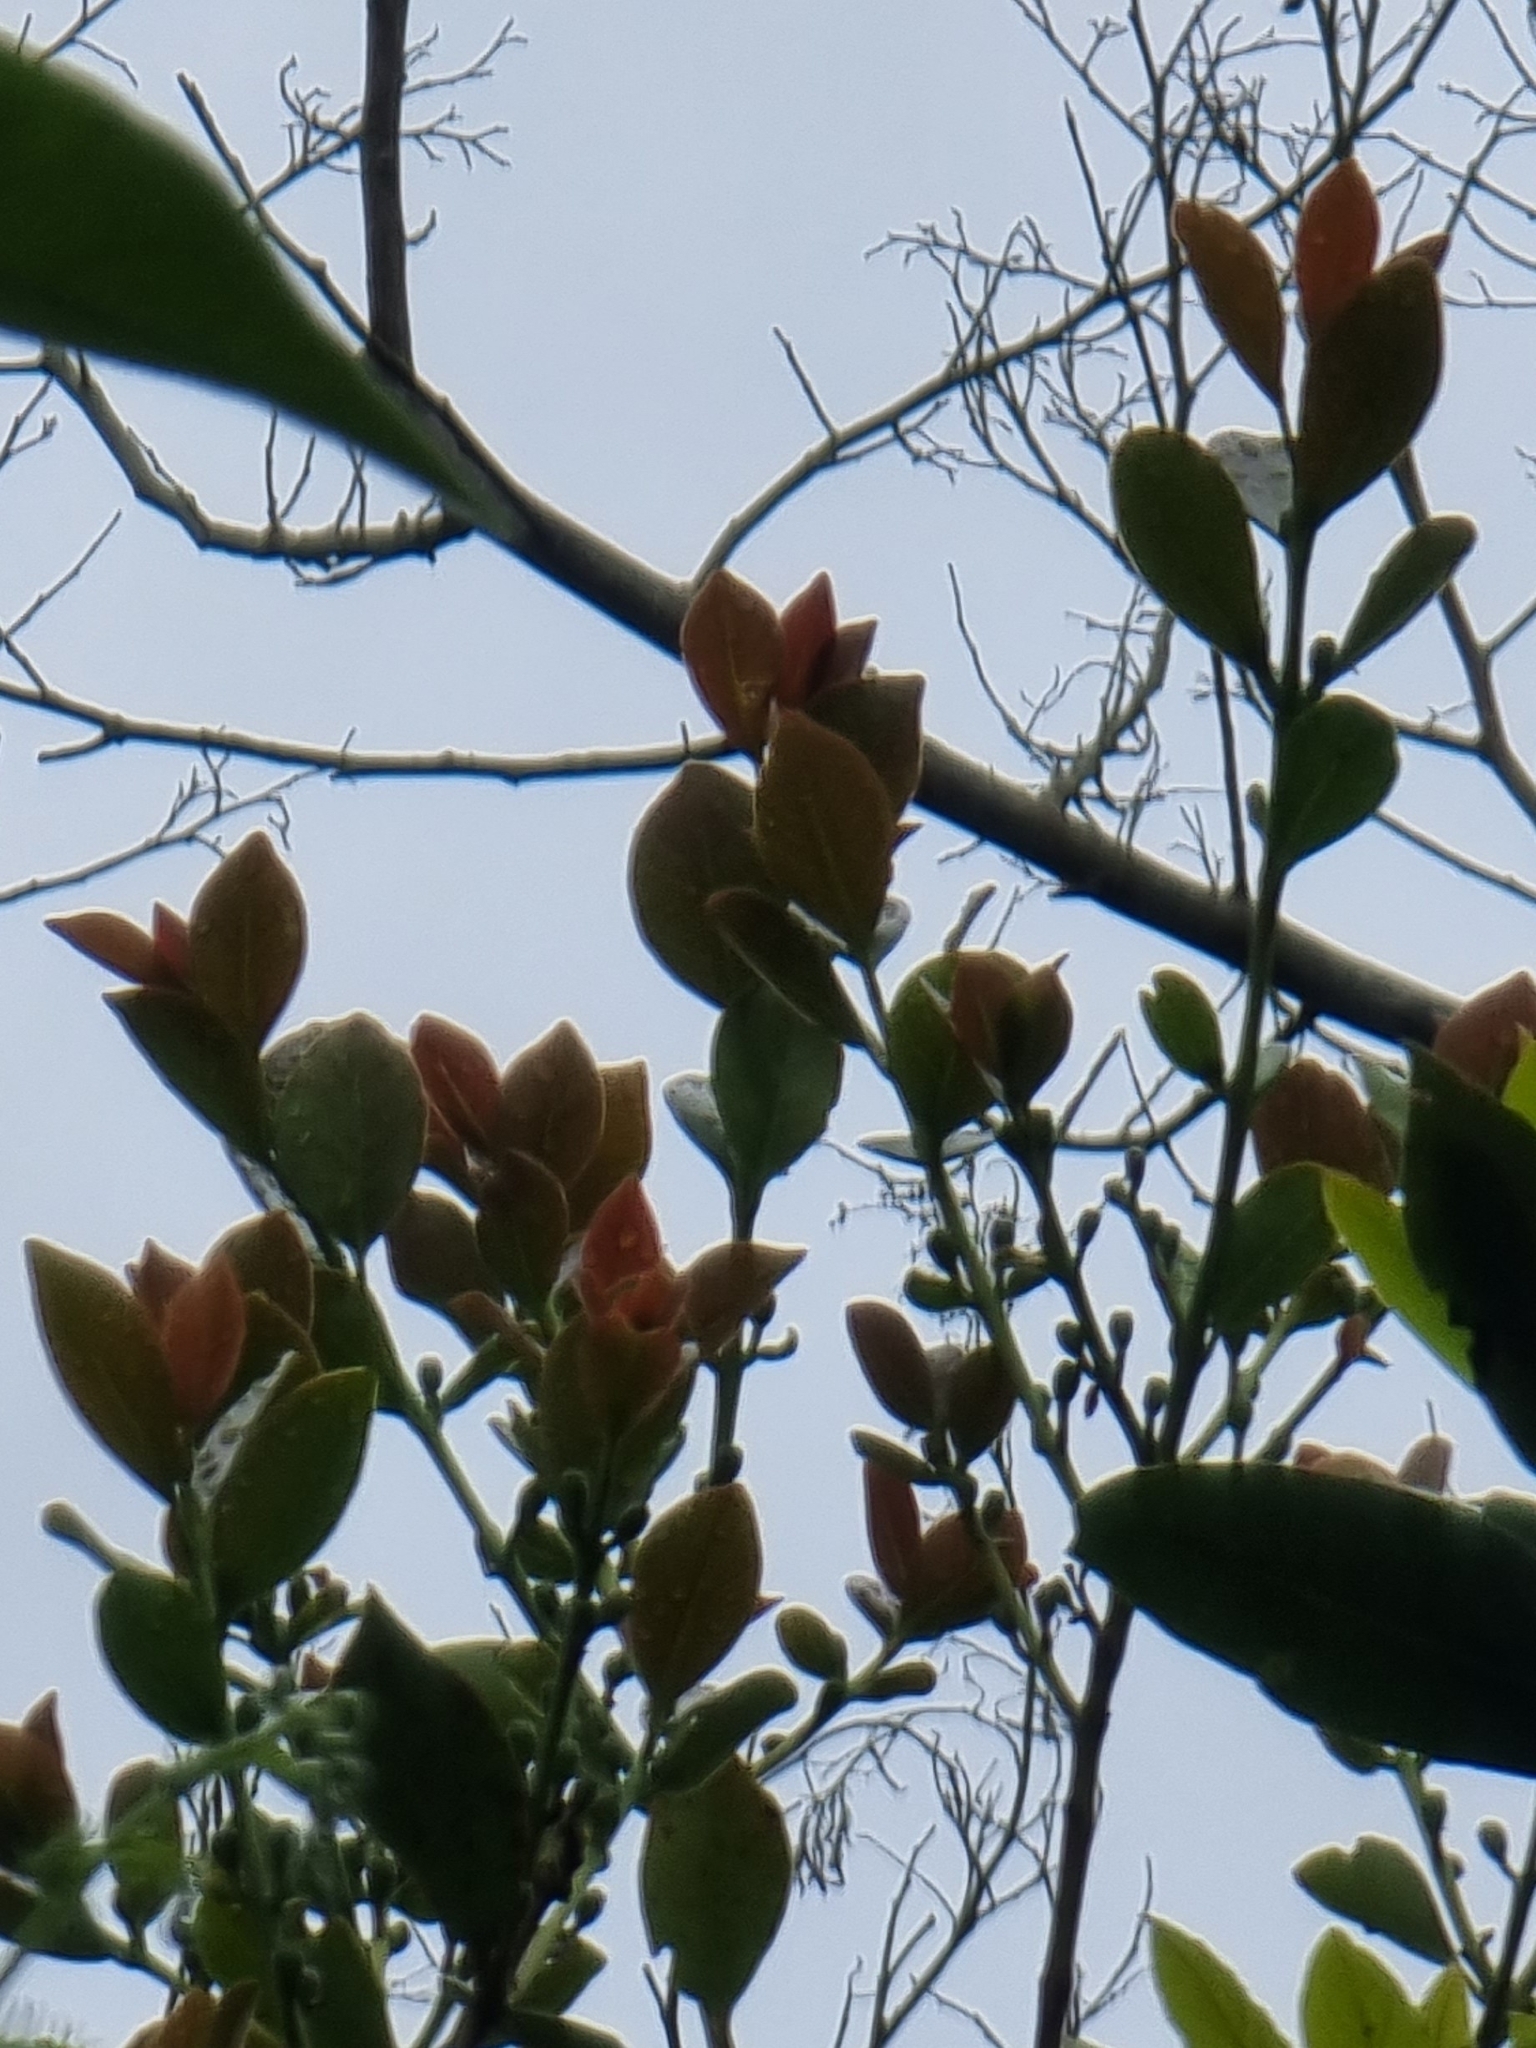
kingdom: Plantae
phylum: Tracheophyta
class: Magnoliopsida
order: Myrtales
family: Myrtaceae
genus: Psidium
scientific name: Psidium cattleianum
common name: Strawberry guava
